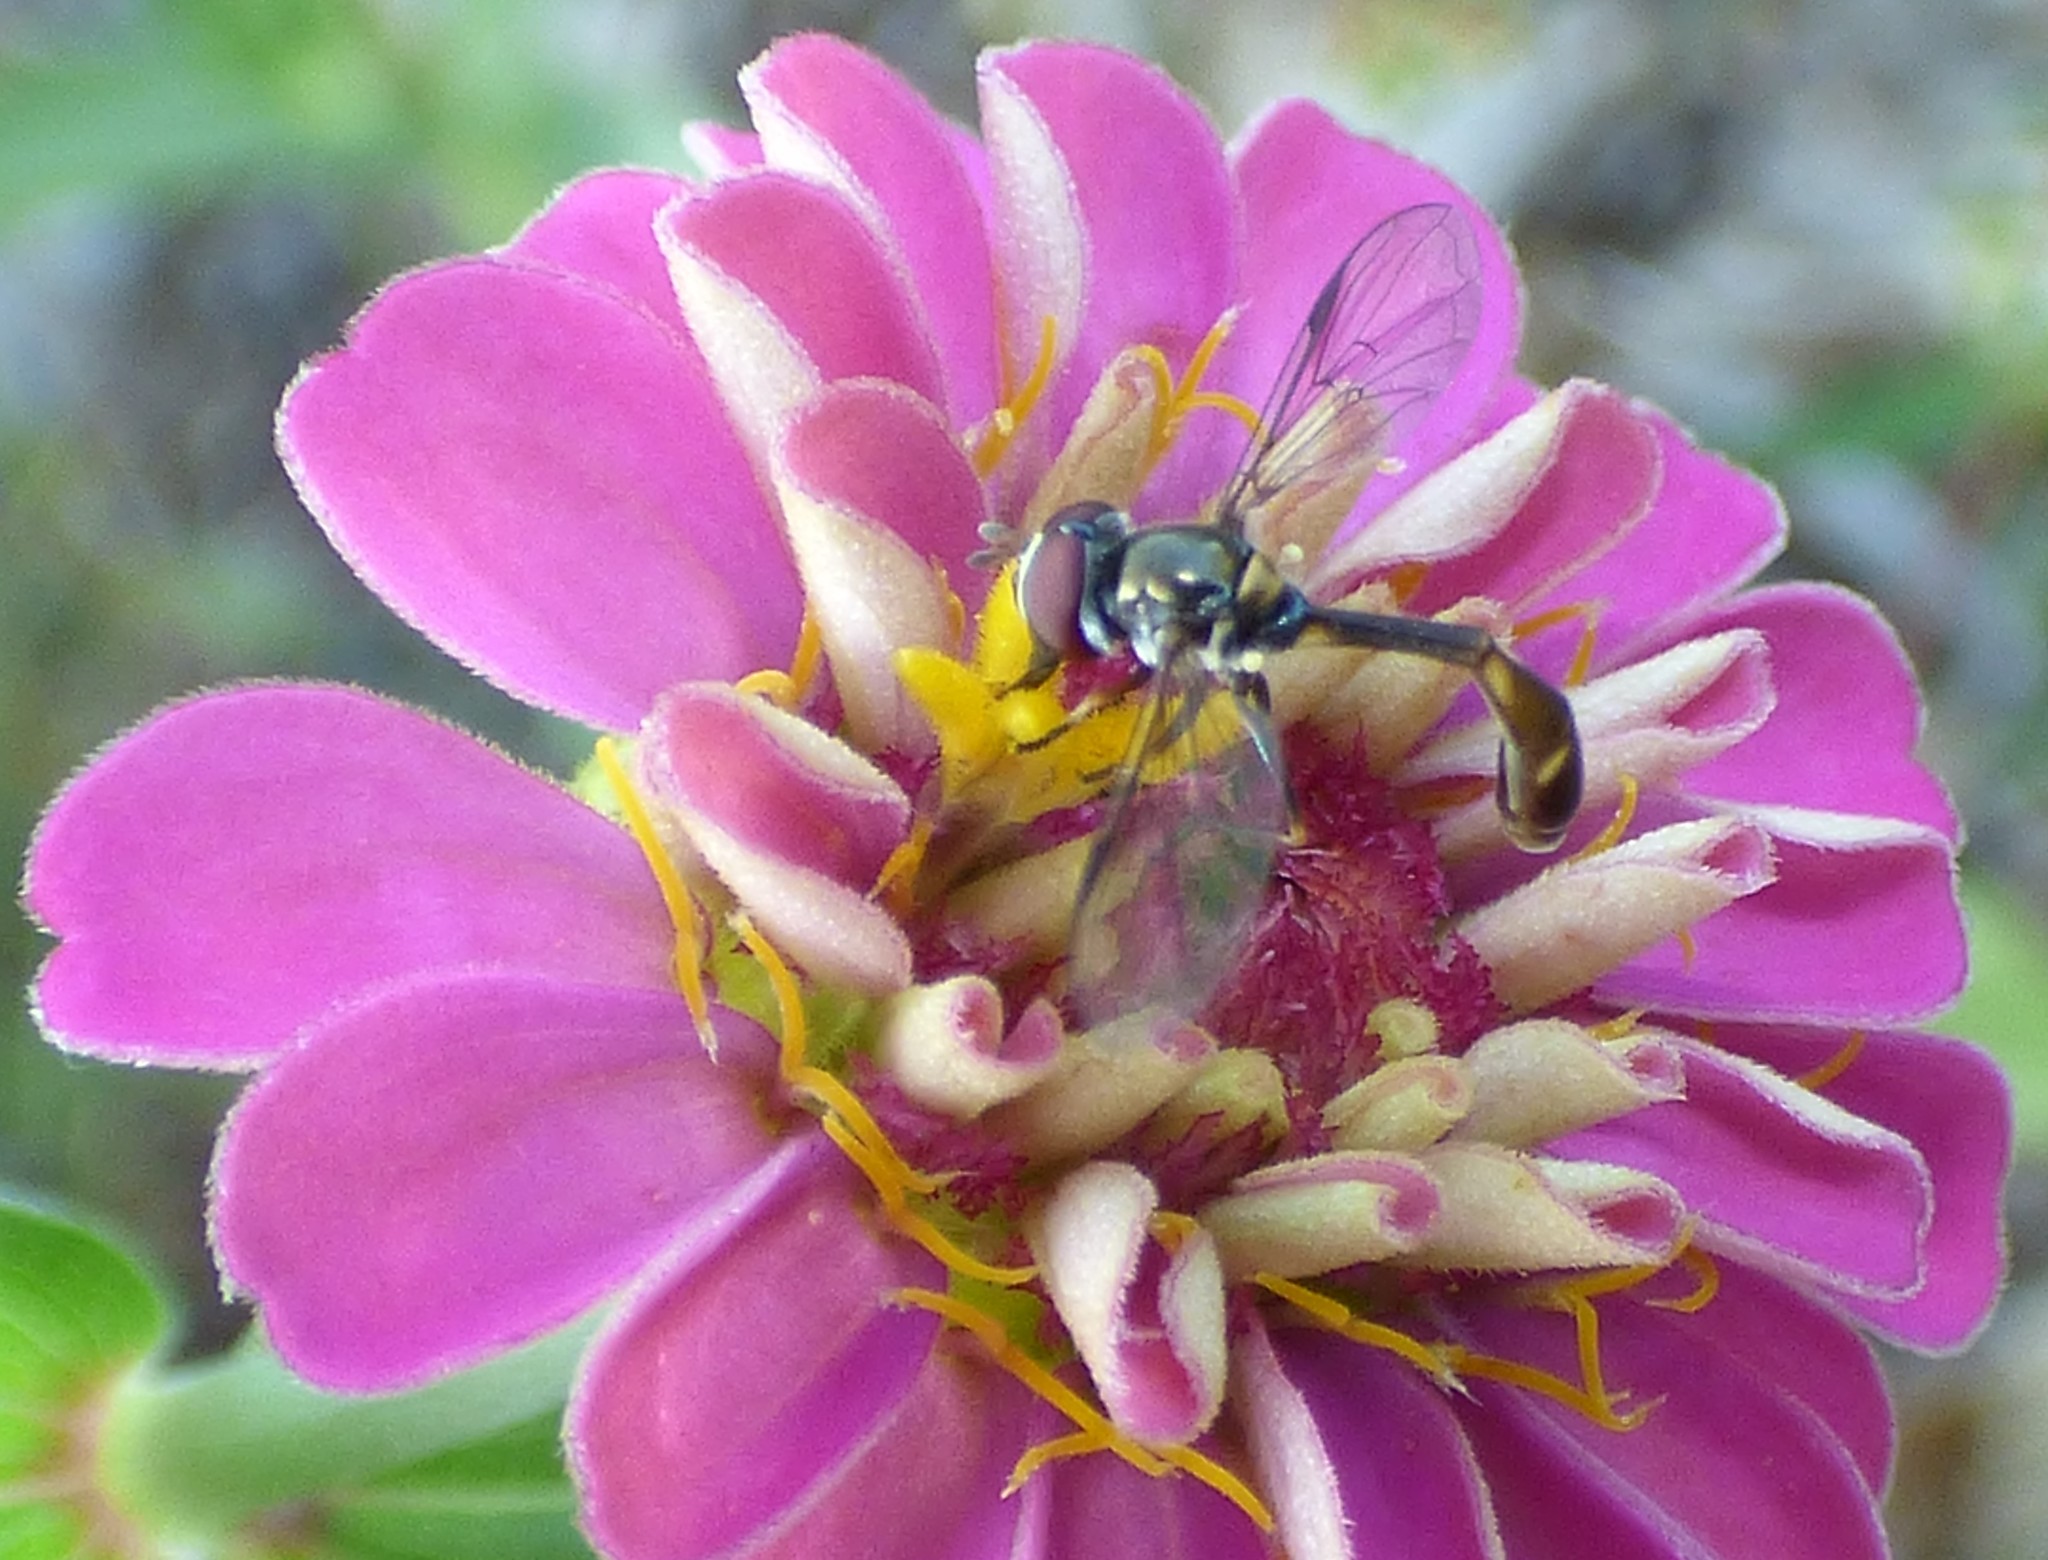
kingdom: Animalia
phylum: Arthropoda
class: Insecta
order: Diptera
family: Syrphidae
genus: Dioprosopa
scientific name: Dioprosopa clavatus
